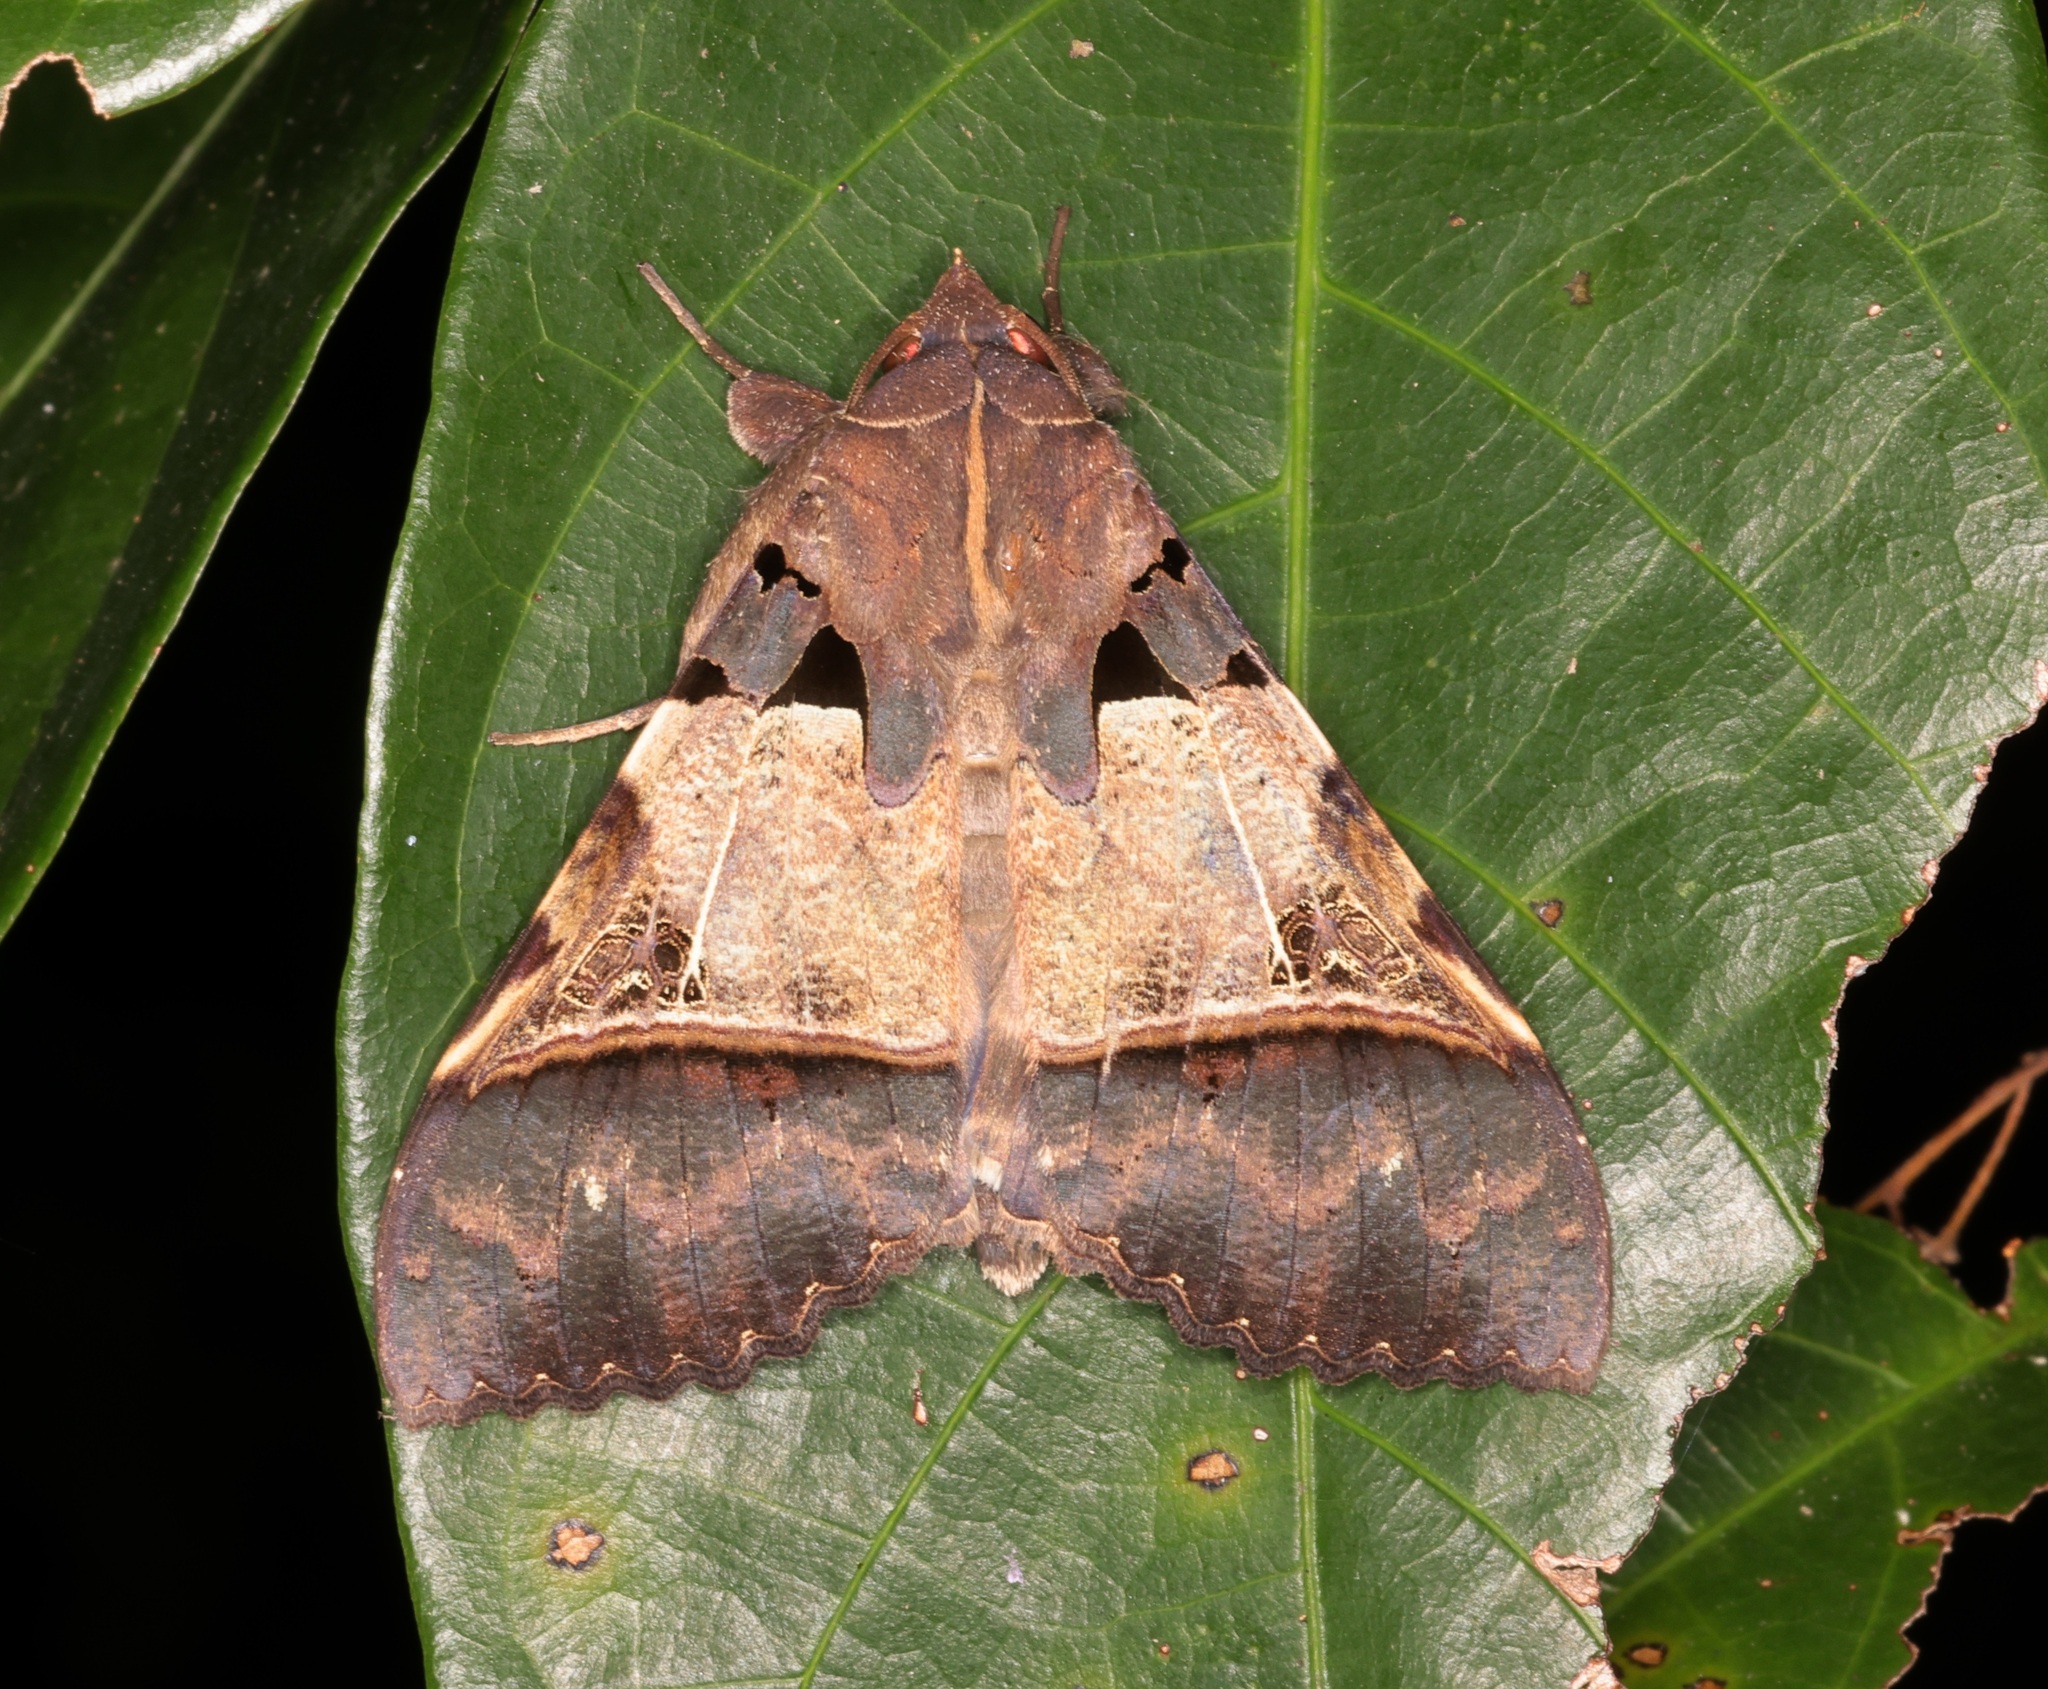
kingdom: Animalia
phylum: Arthropoda
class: Insecta
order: Lepidoptera
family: Erebidae
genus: Serrodes
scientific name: Serrodes campana
